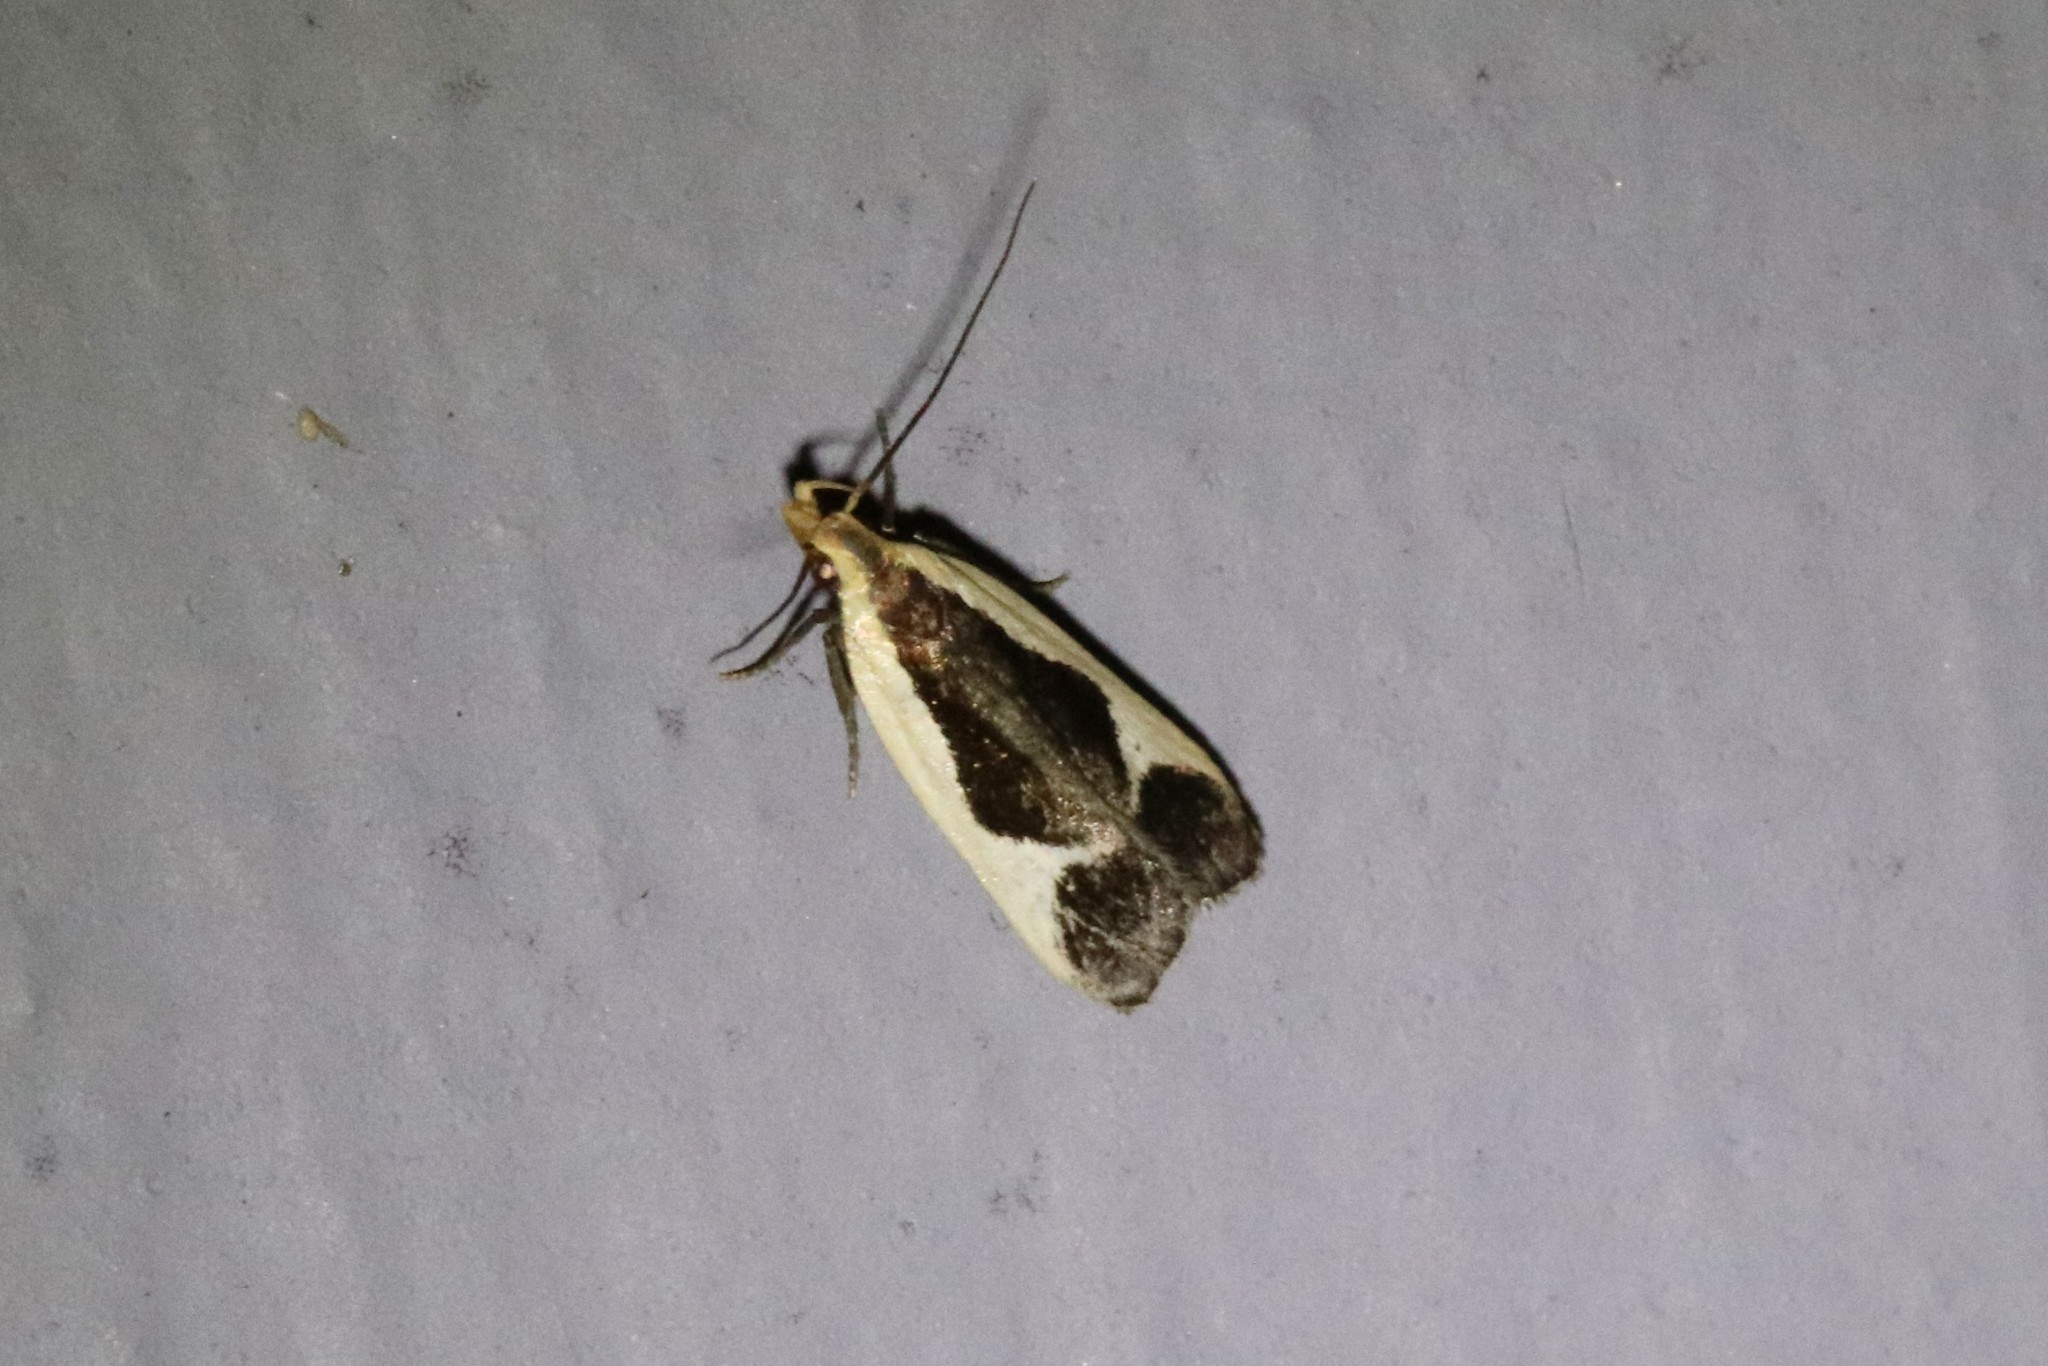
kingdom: Animalia
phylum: Arthropoda
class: Insecta
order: Lepidoptera
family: Gelechiidae
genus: Dichomeris
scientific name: Dichomeris flavocostella
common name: Cream-edged dichomeris moth
